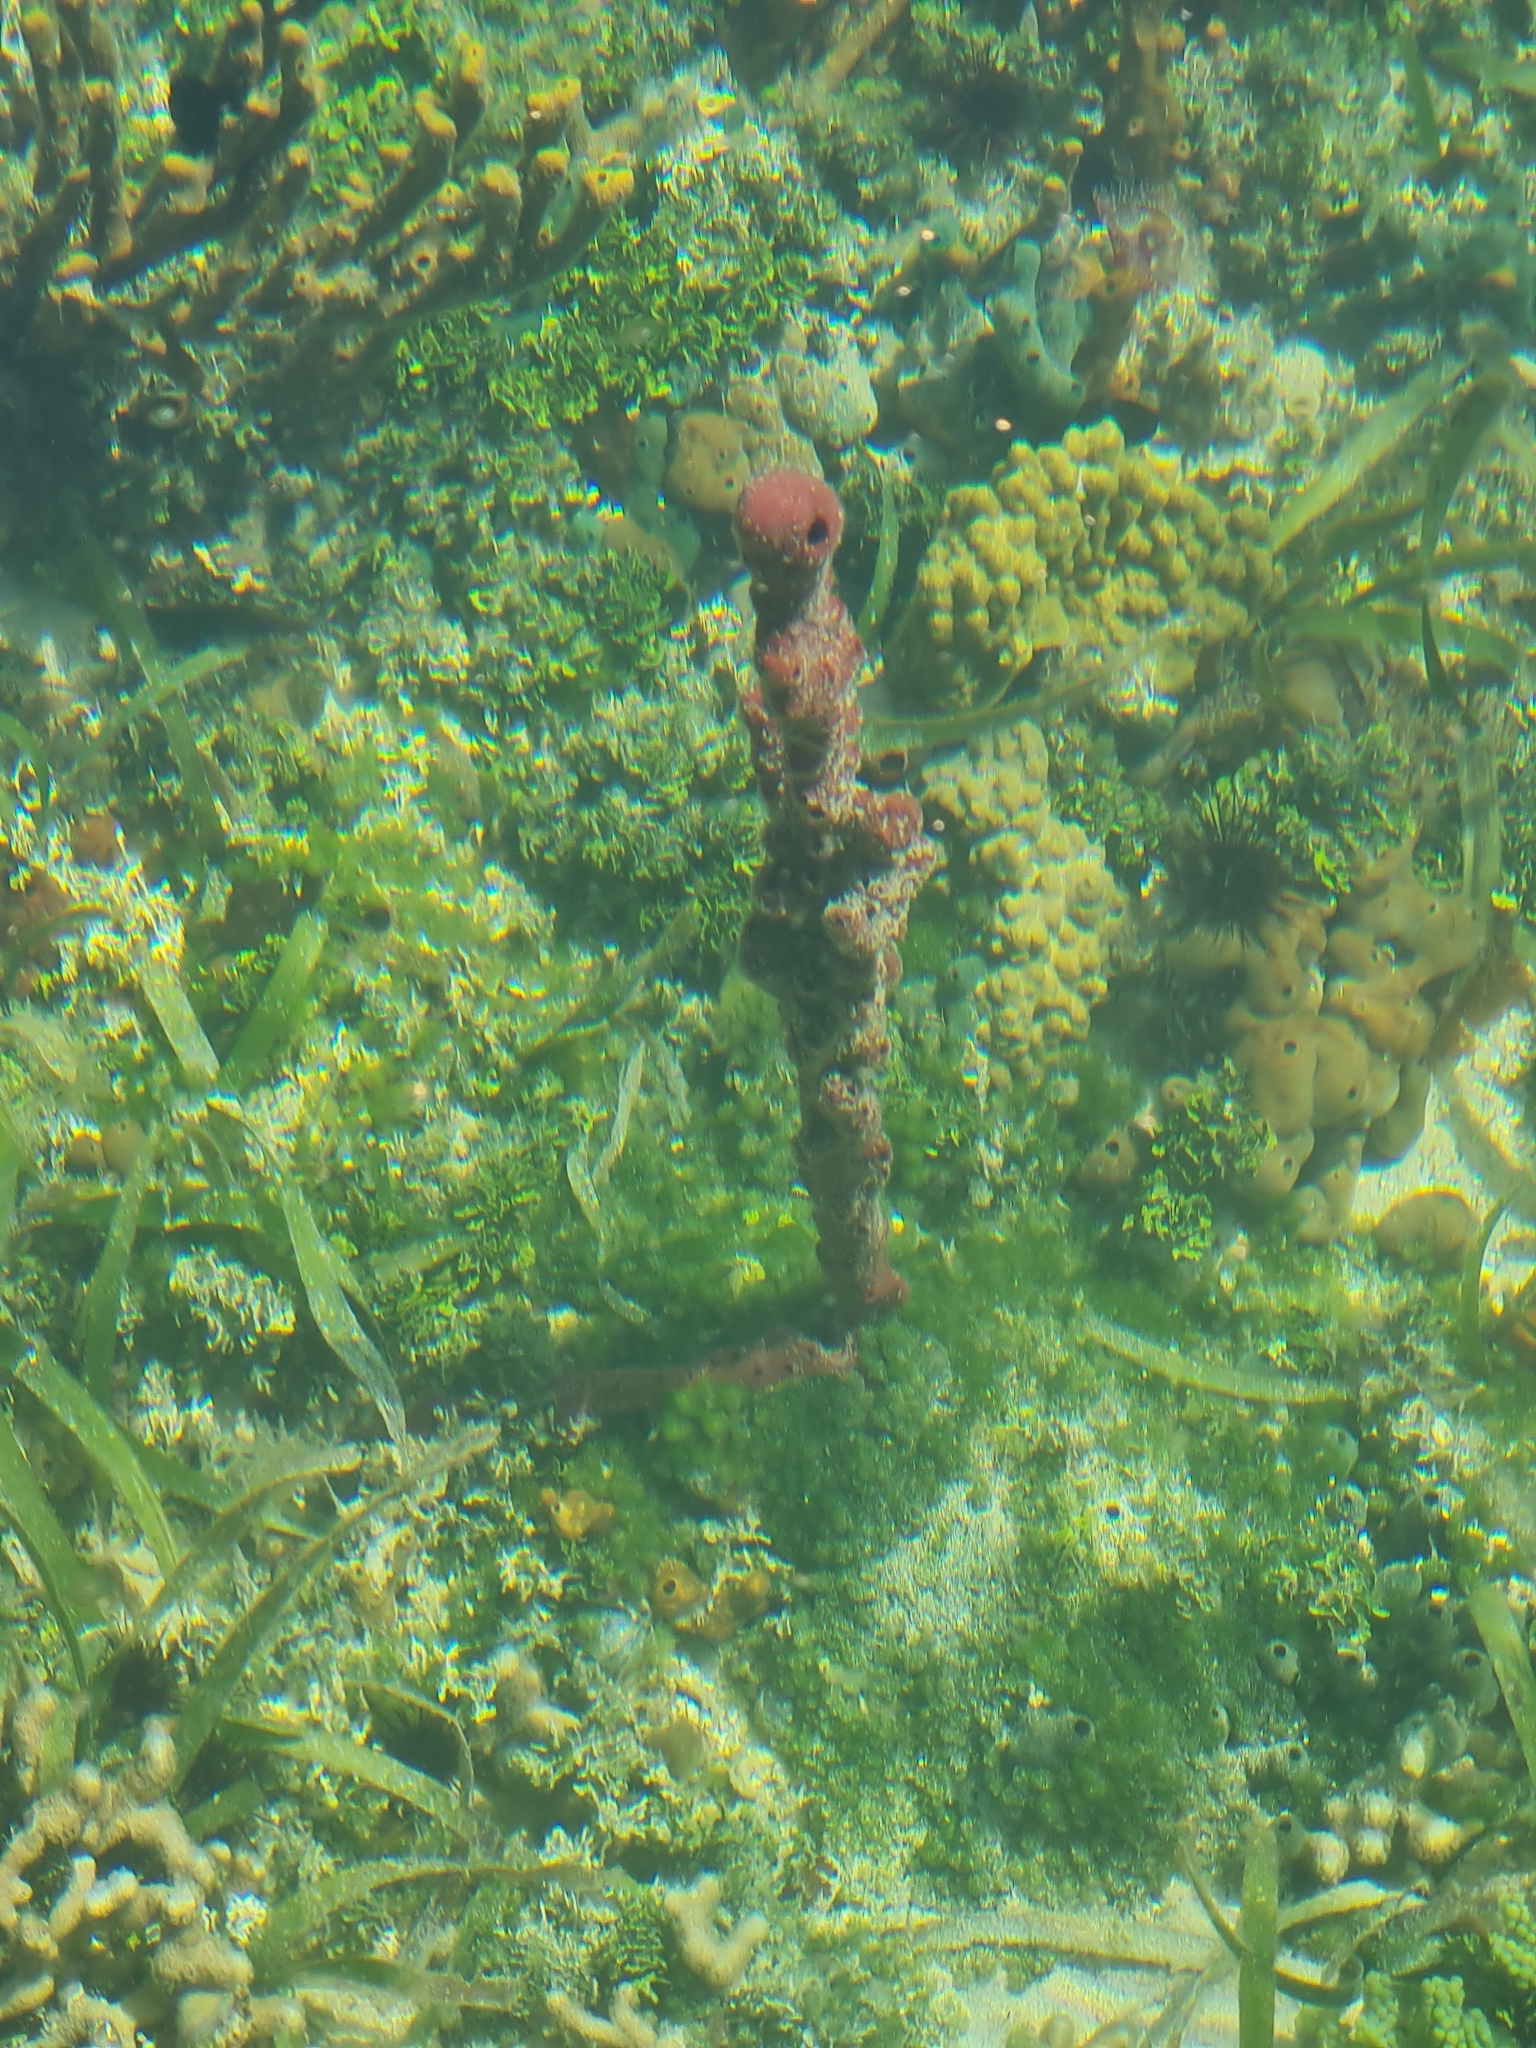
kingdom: Animalia
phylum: Porifera
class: Demospongiae
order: Haplosclerida
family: Niphatidae
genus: Amphimedon
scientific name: Amphimedon compressa
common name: Red sponge
